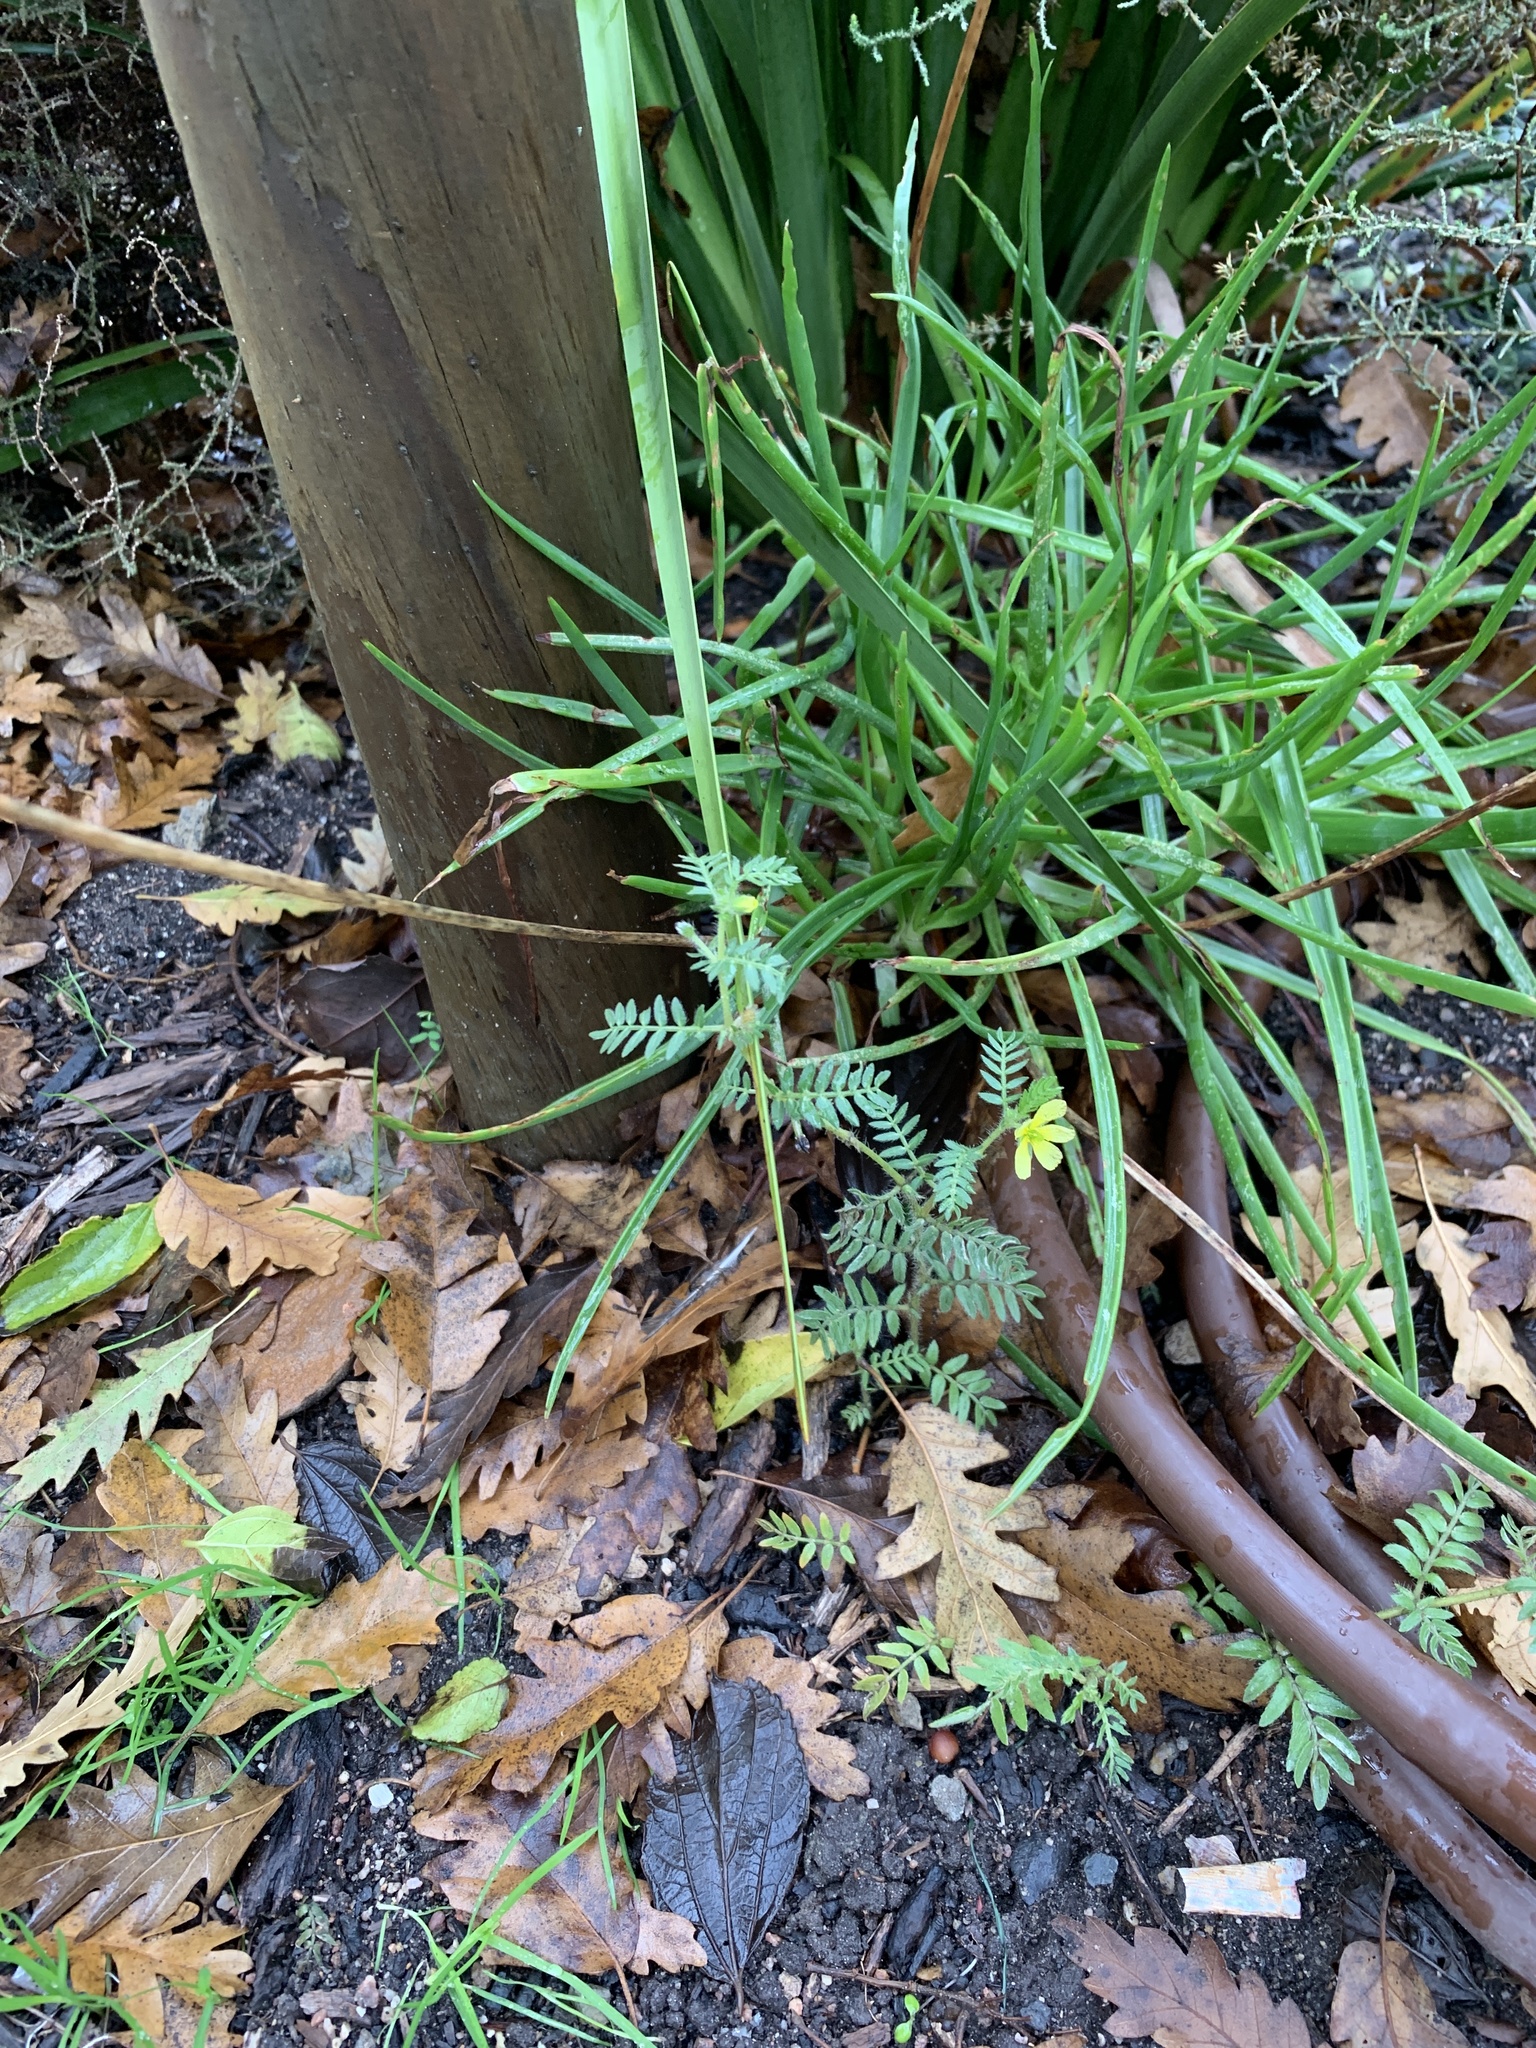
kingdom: Plantae
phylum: Tracheophyta
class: Magnoliopsida
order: Zygophyllales
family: Zygophyllaceae
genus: Tribulus
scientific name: Tribulus terrestris
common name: Puncturevine
